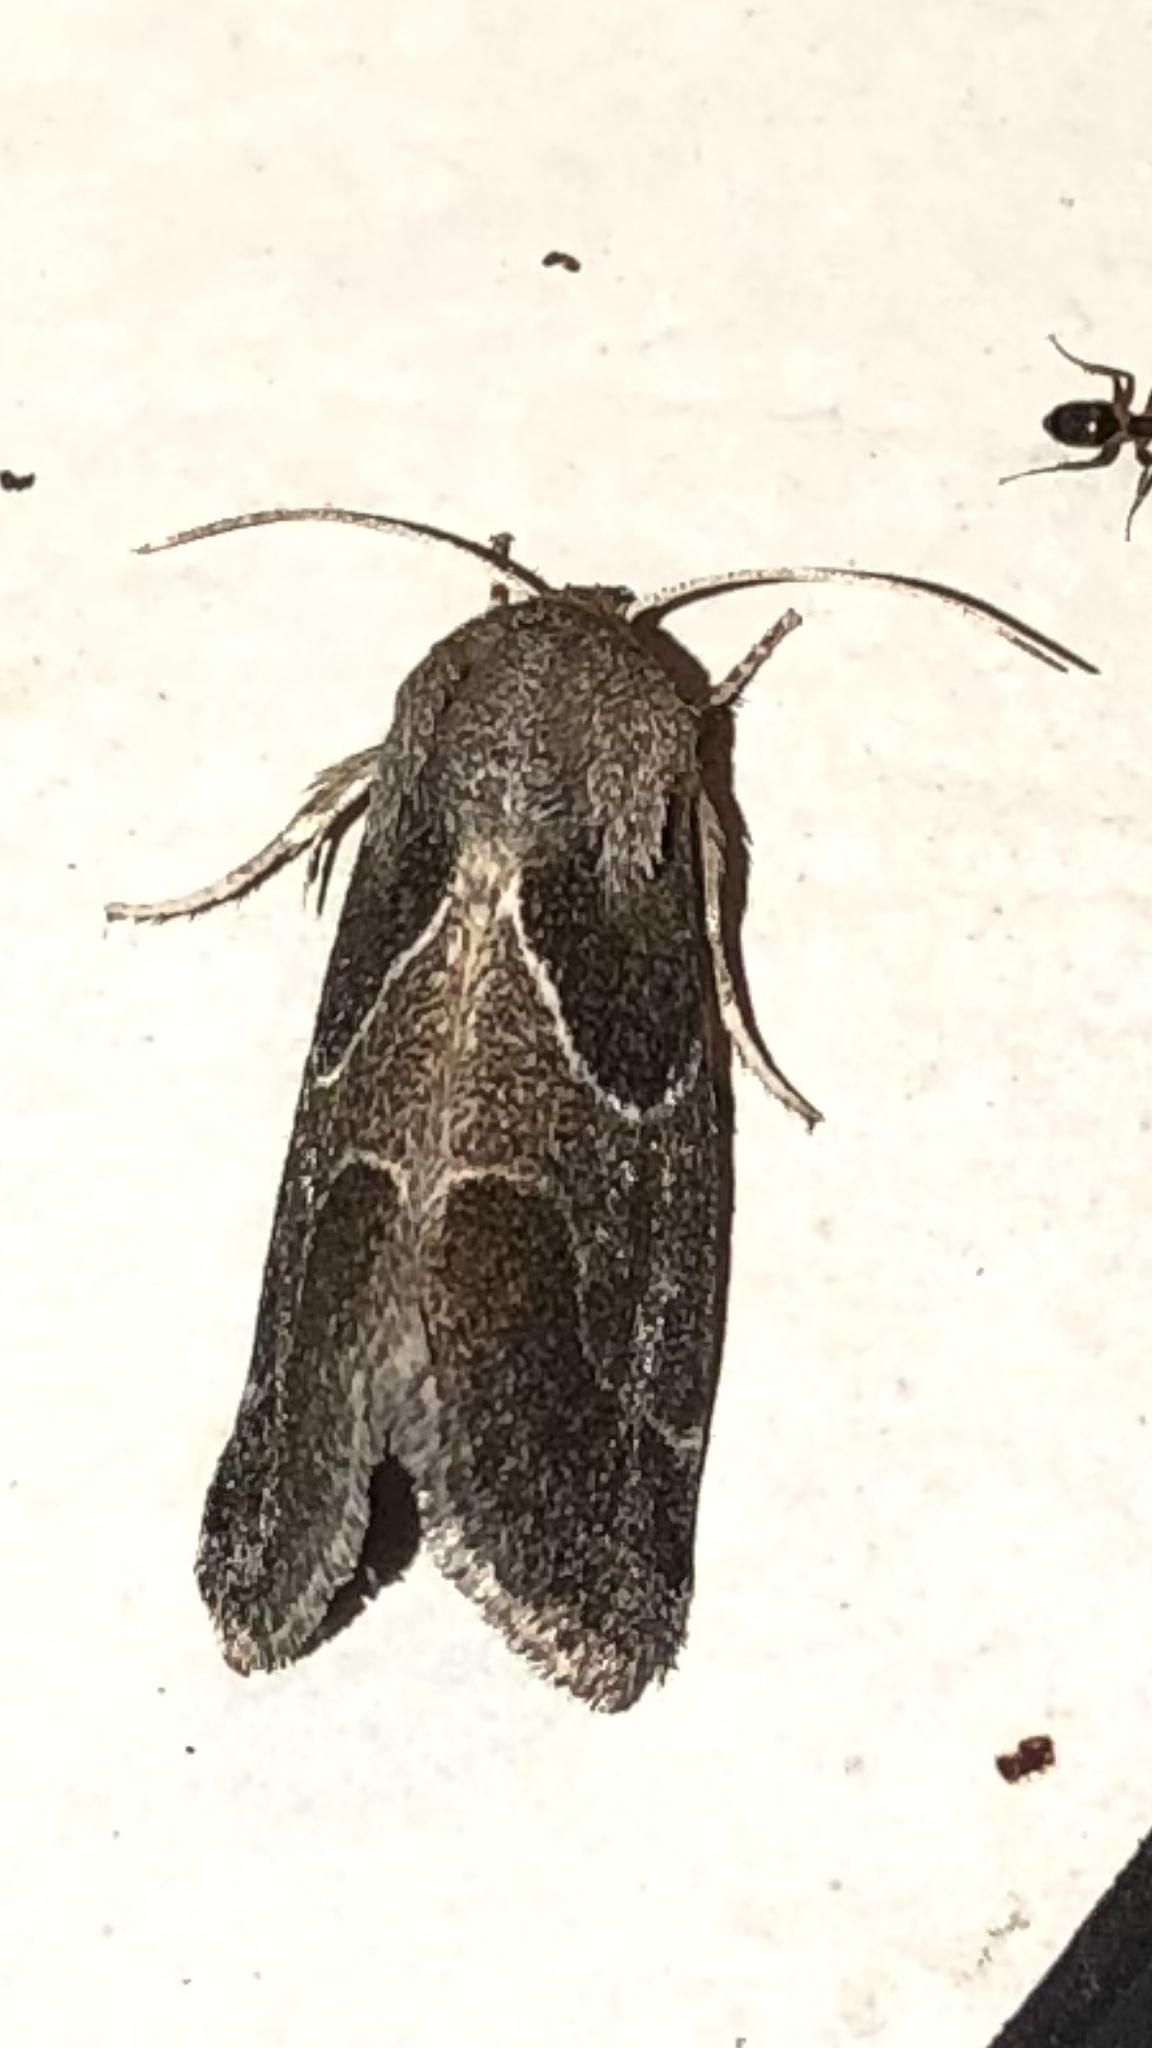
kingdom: Animalia
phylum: Arthropoda
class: Insecta
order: Lepidoptera
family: Noctuidae
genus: Schinia
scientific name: Schinia rivulosa
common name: Scarce meal-moth
